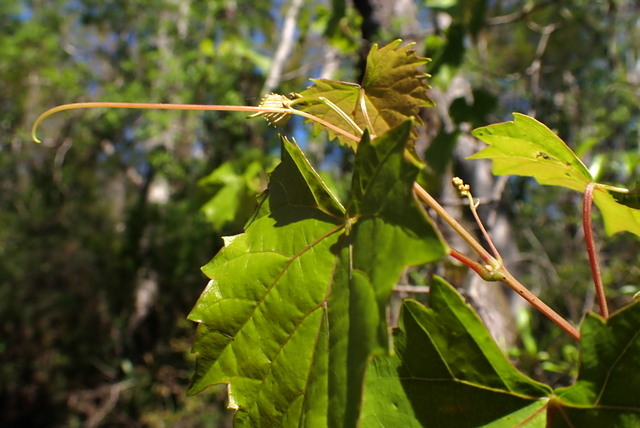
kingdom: Plantae
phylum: Tracheophyta
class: Magnoliopsida
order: Vitales
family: Vitaceae
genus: Vitis
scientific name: Vitis rotundifolia
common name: Muscadine grape
